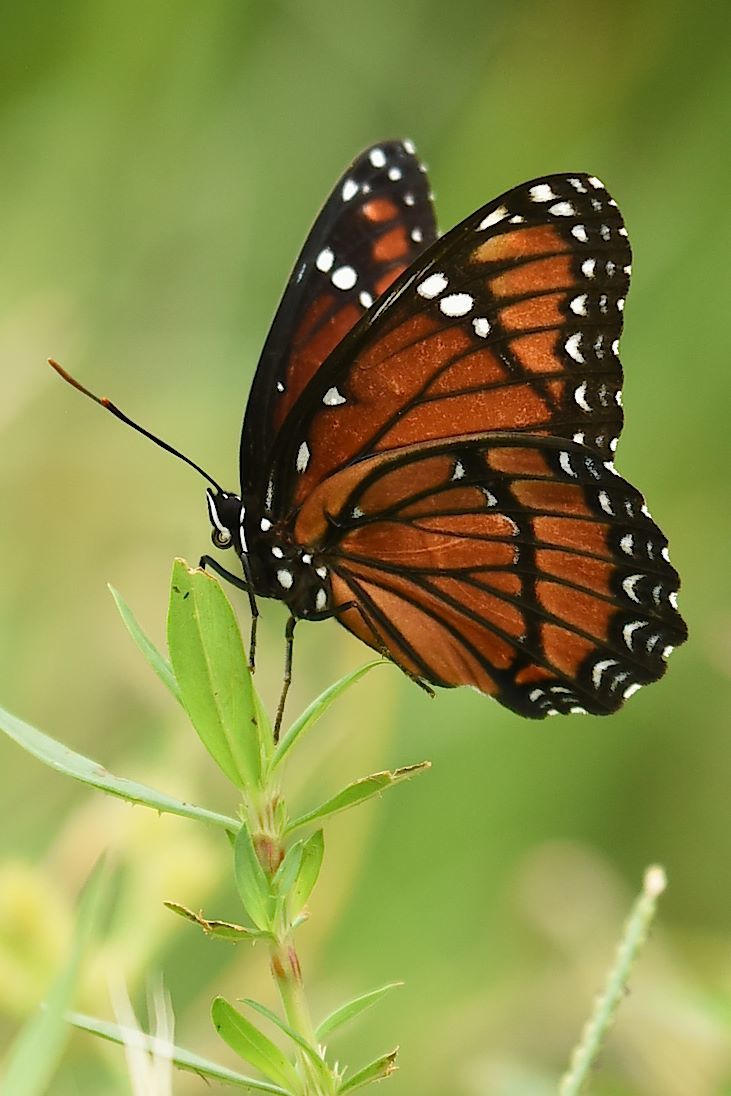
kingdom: Animalia
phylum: Arthropoda
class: Insecta
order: Lepidoptera
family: Nymphalidae
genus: Limenitis
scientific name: Limenitis archippus
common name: Viceroy
